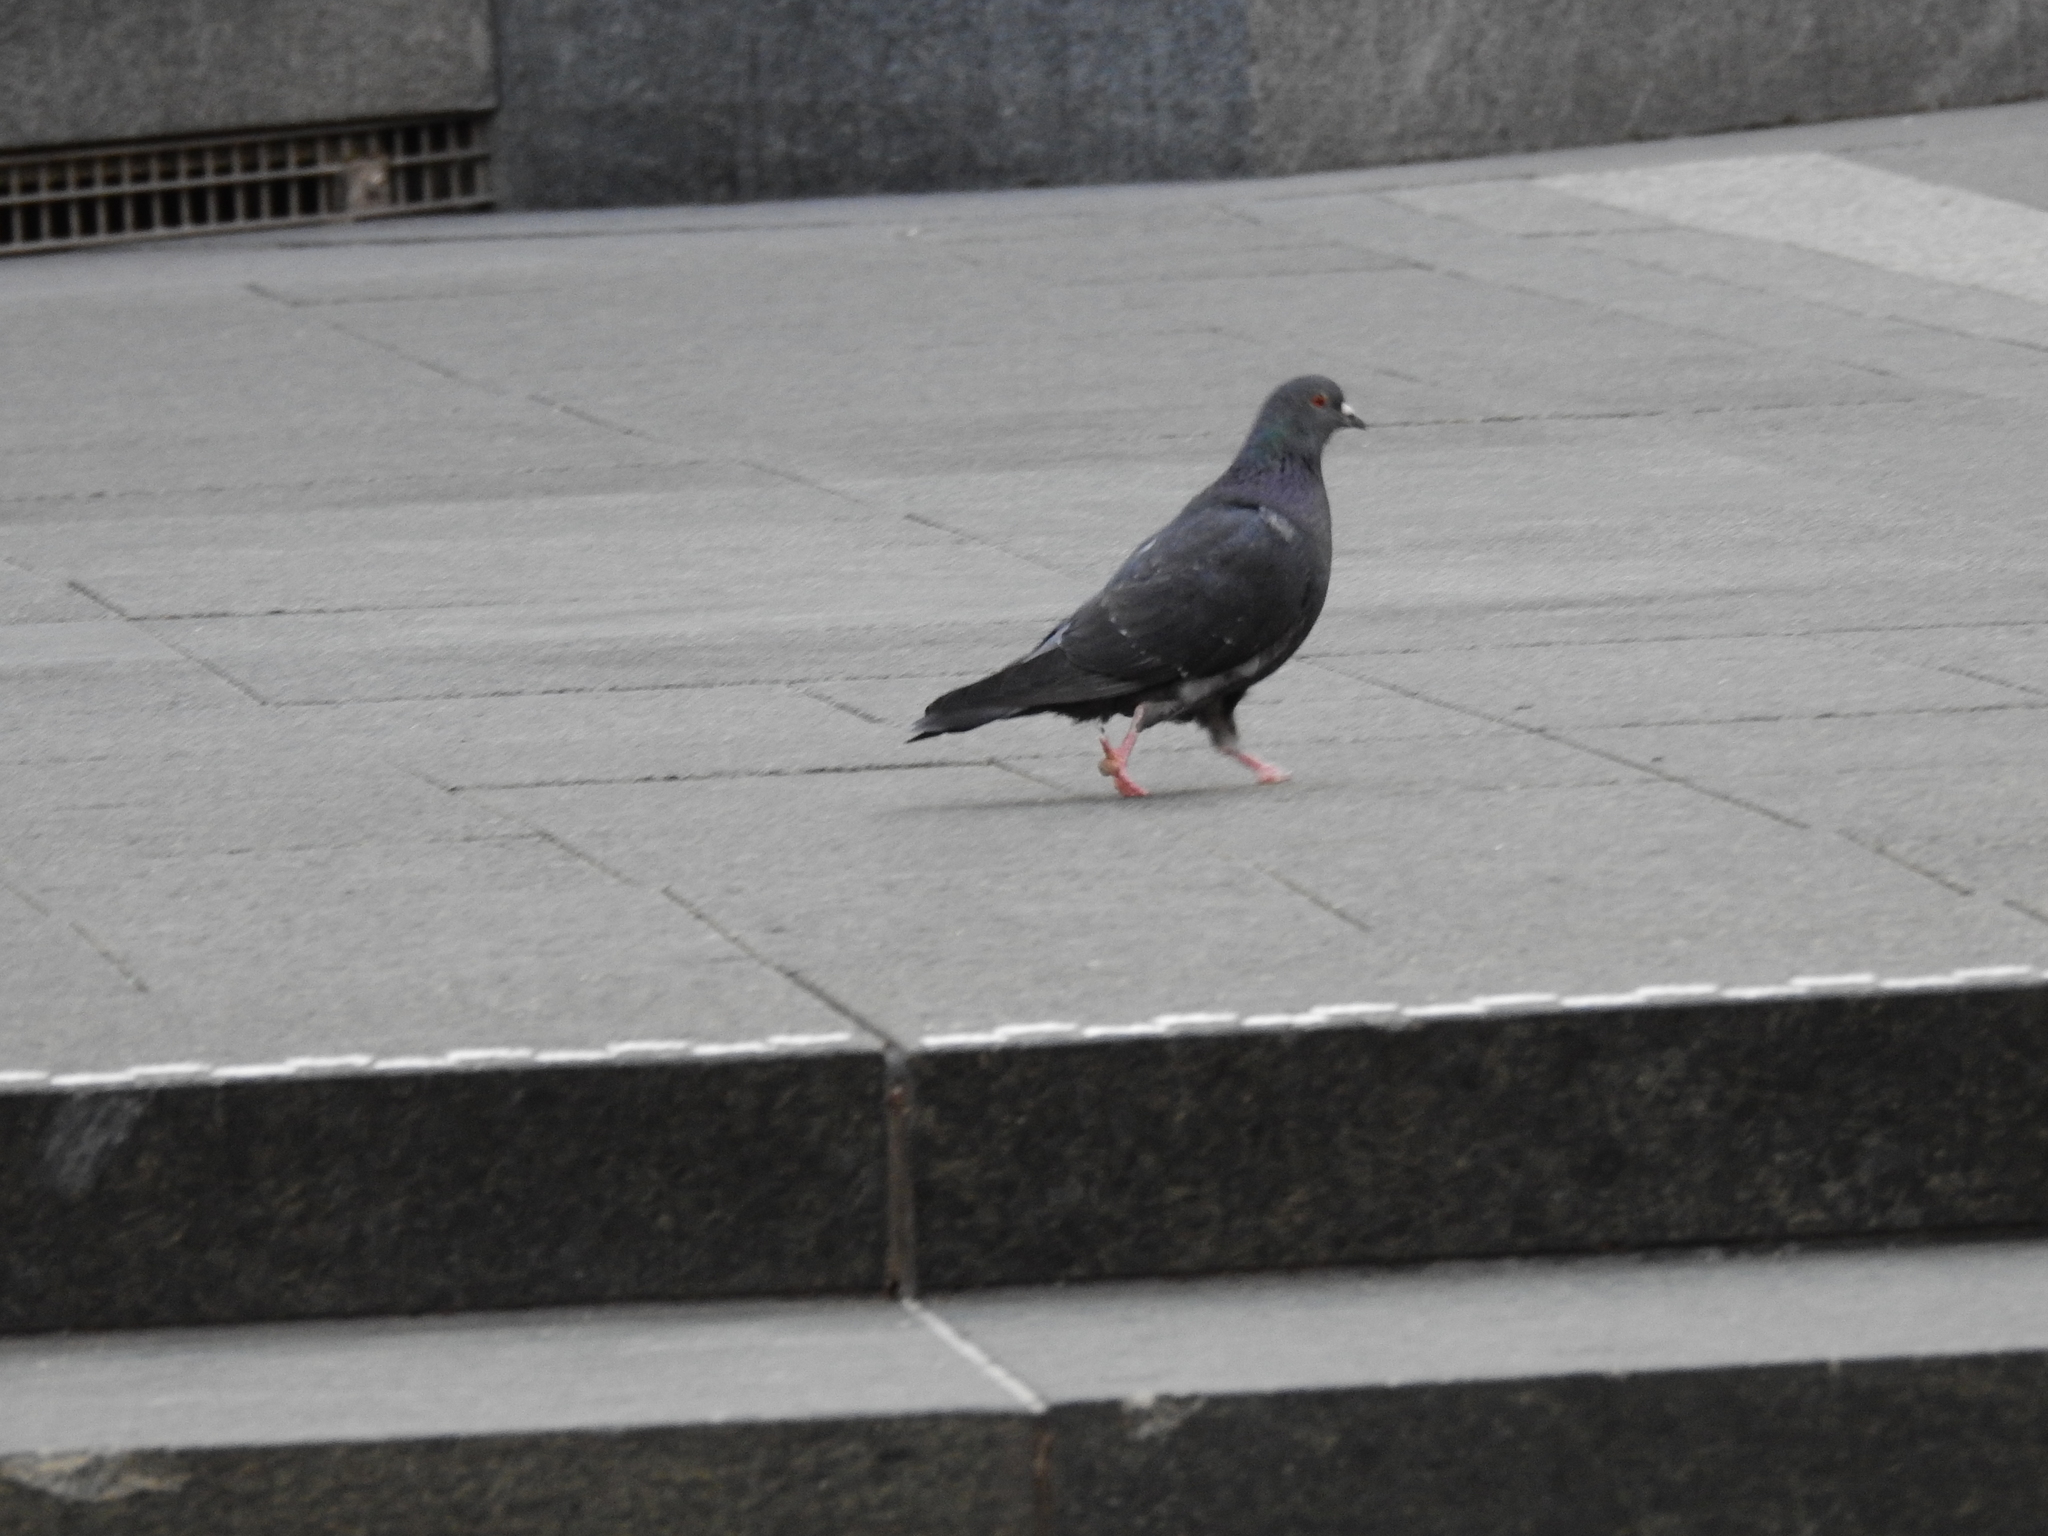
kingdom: Animalia
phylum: Chordata
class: Aves
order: Columbiformes
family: Columbidae
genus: Columba
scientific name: Columba livia
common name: Rock pigeon
